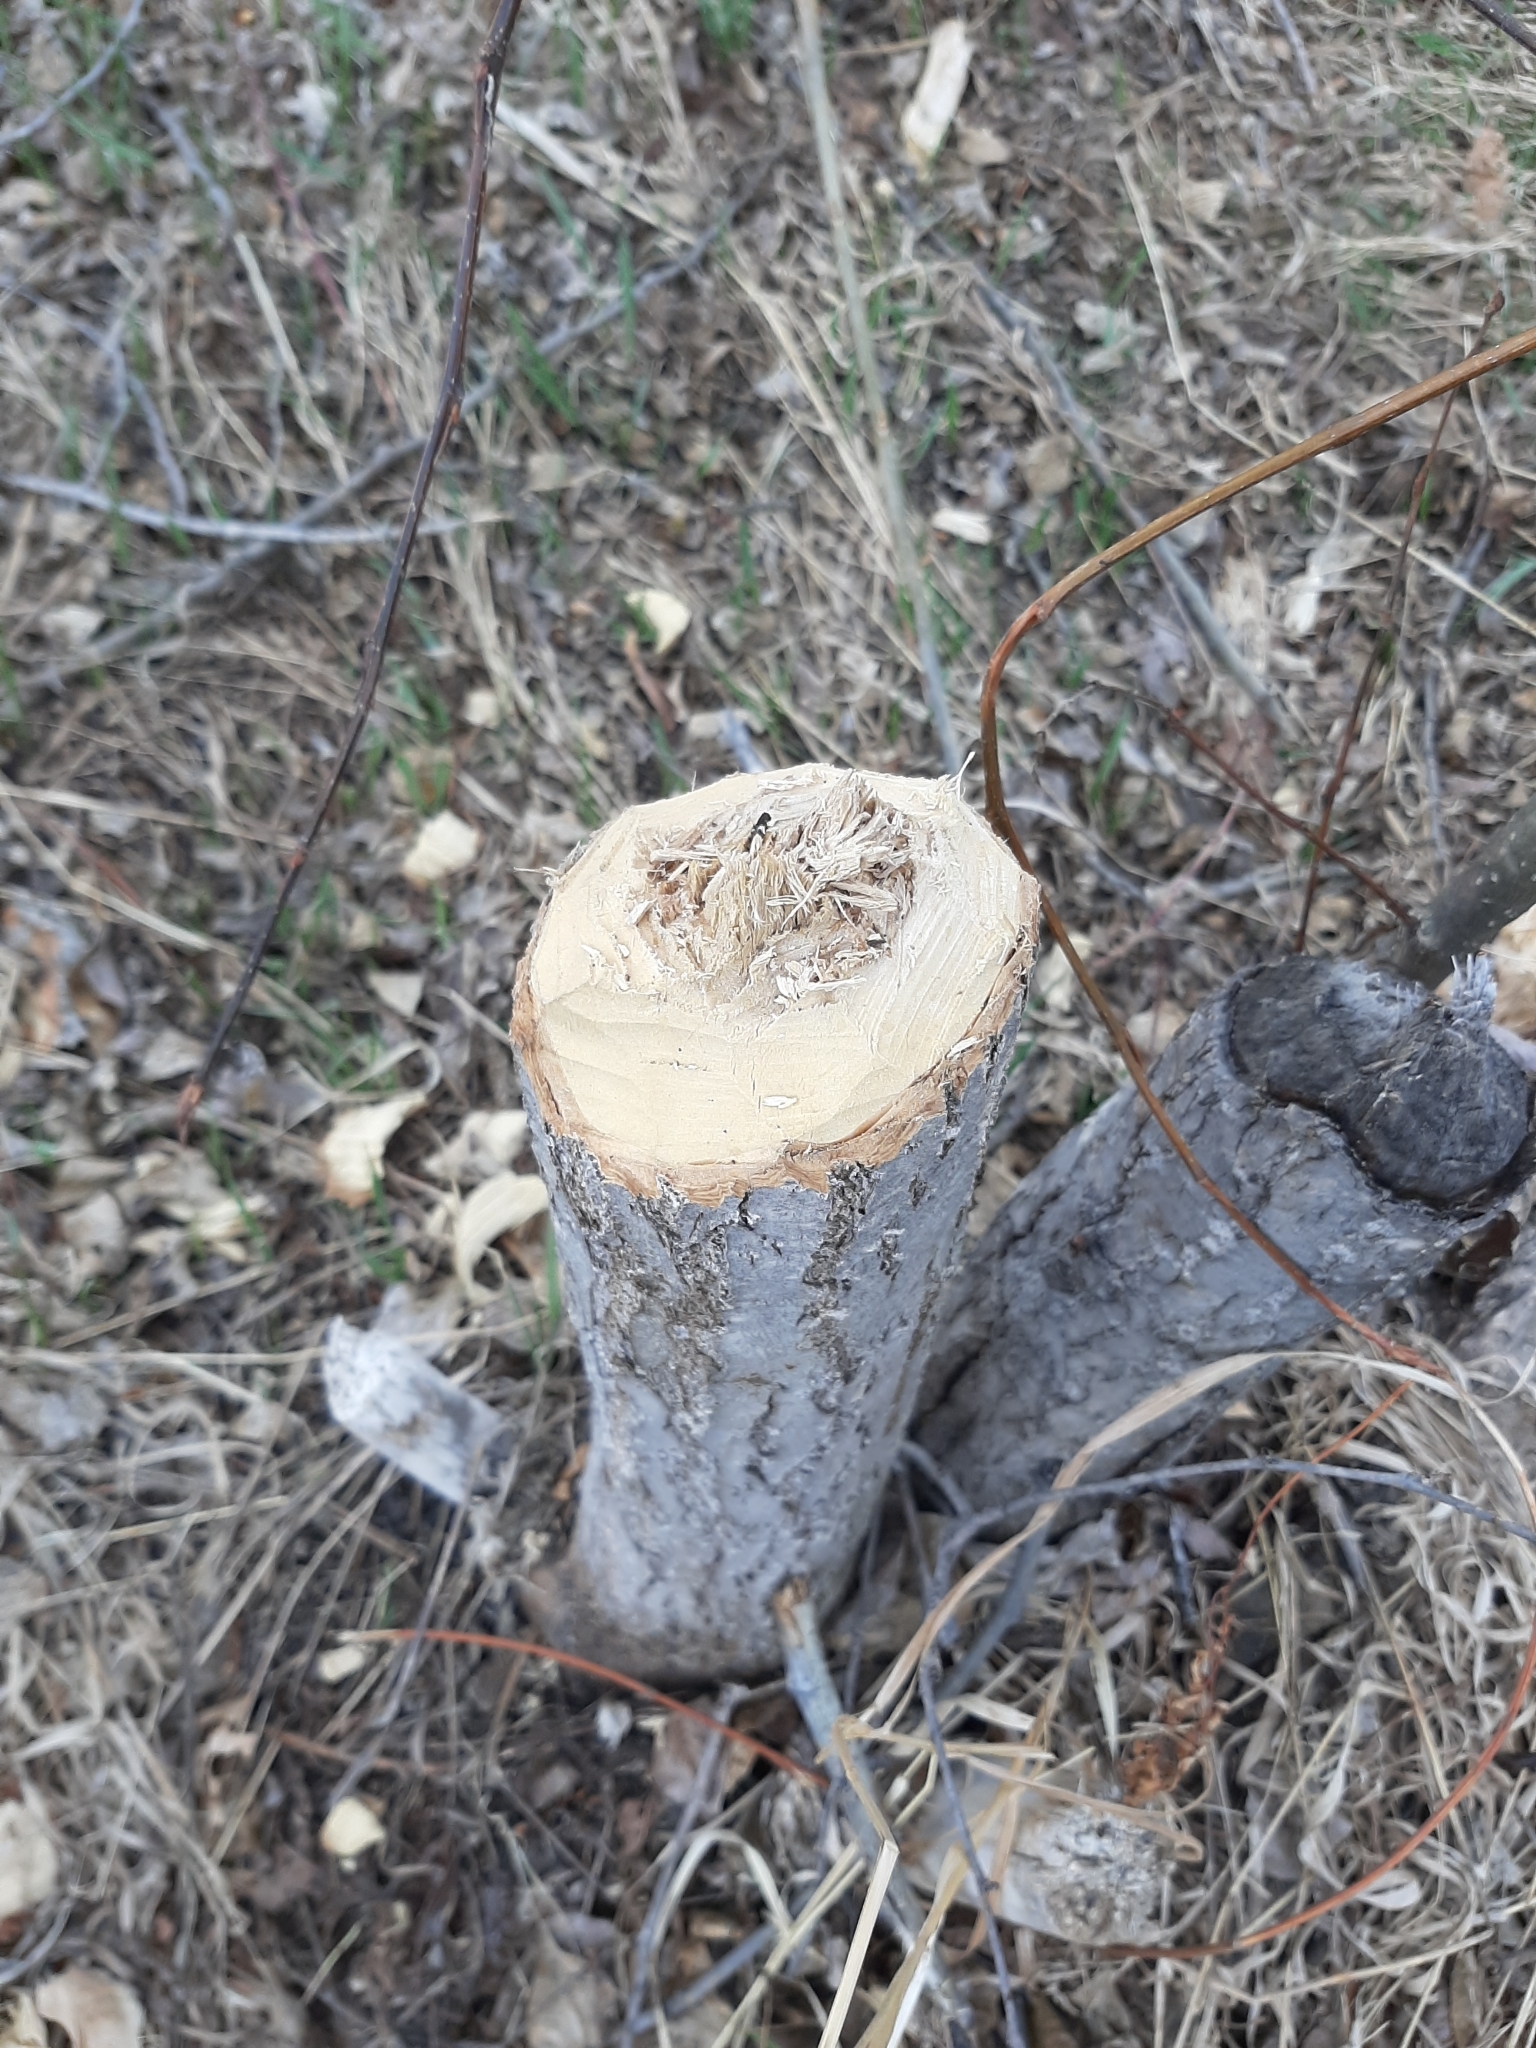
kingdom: Animalia
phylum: Chordata
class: Mammalia
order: Rodentia
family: Castoridae
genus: Castor
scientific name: Castor canadensis
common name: American beaver
